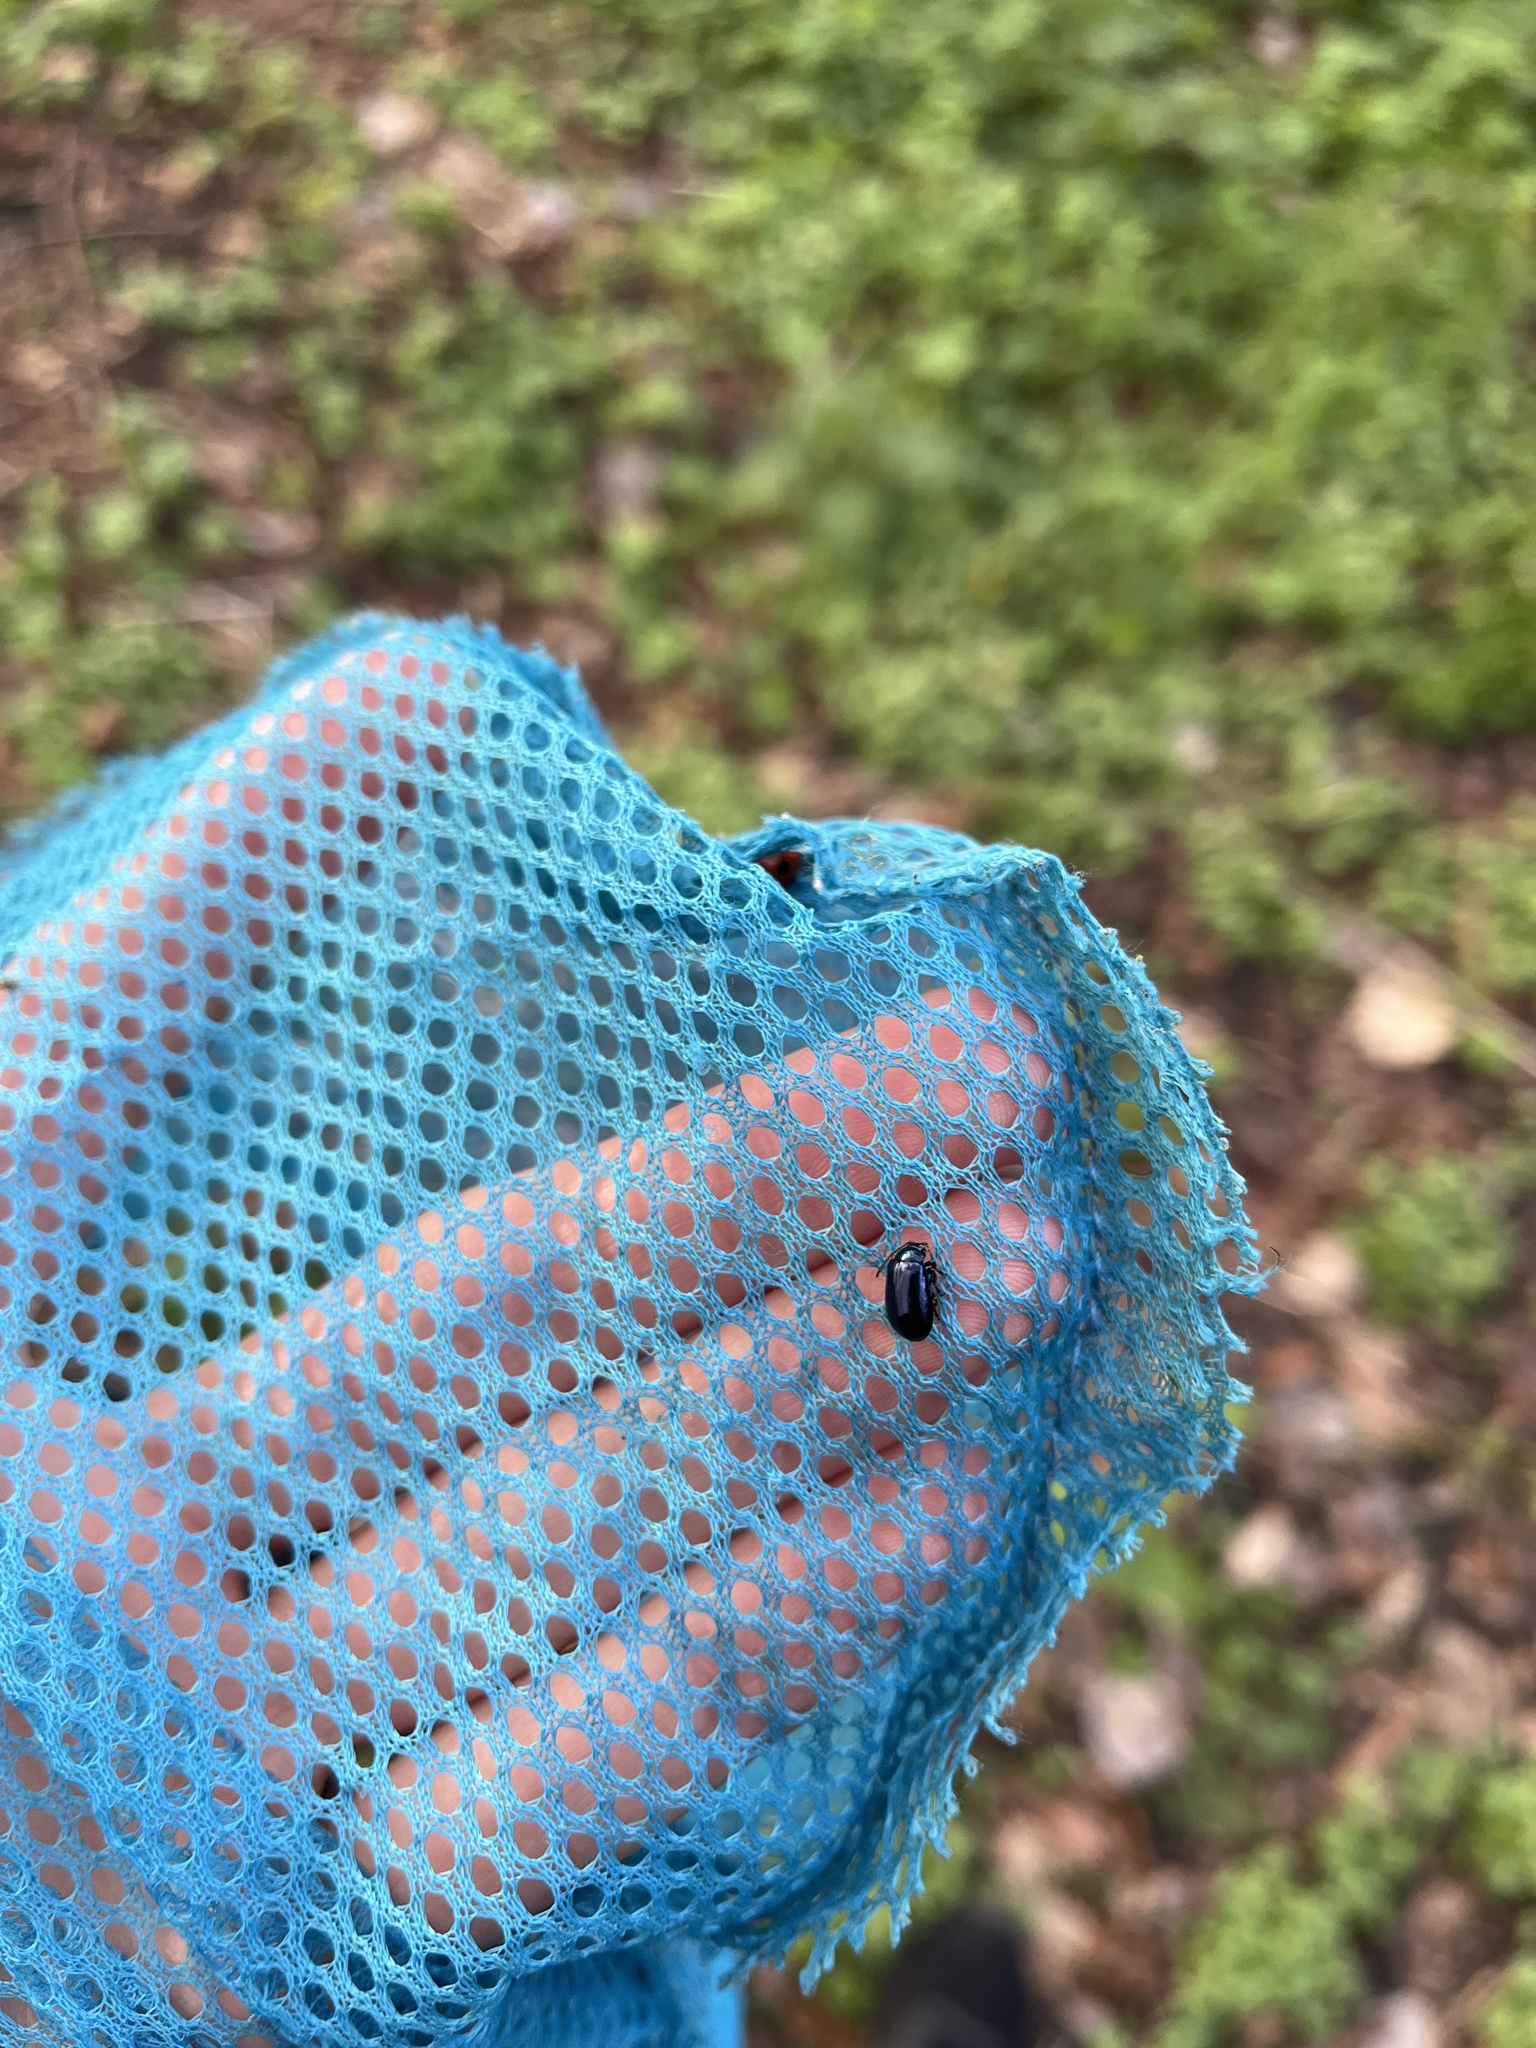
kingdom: Animalia
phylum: Arthropoda
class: Insecta
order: Coleoptera
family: Chrysomelidae
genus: Agelastica
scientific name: Agelastica alni
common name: Alder leaf beetle
